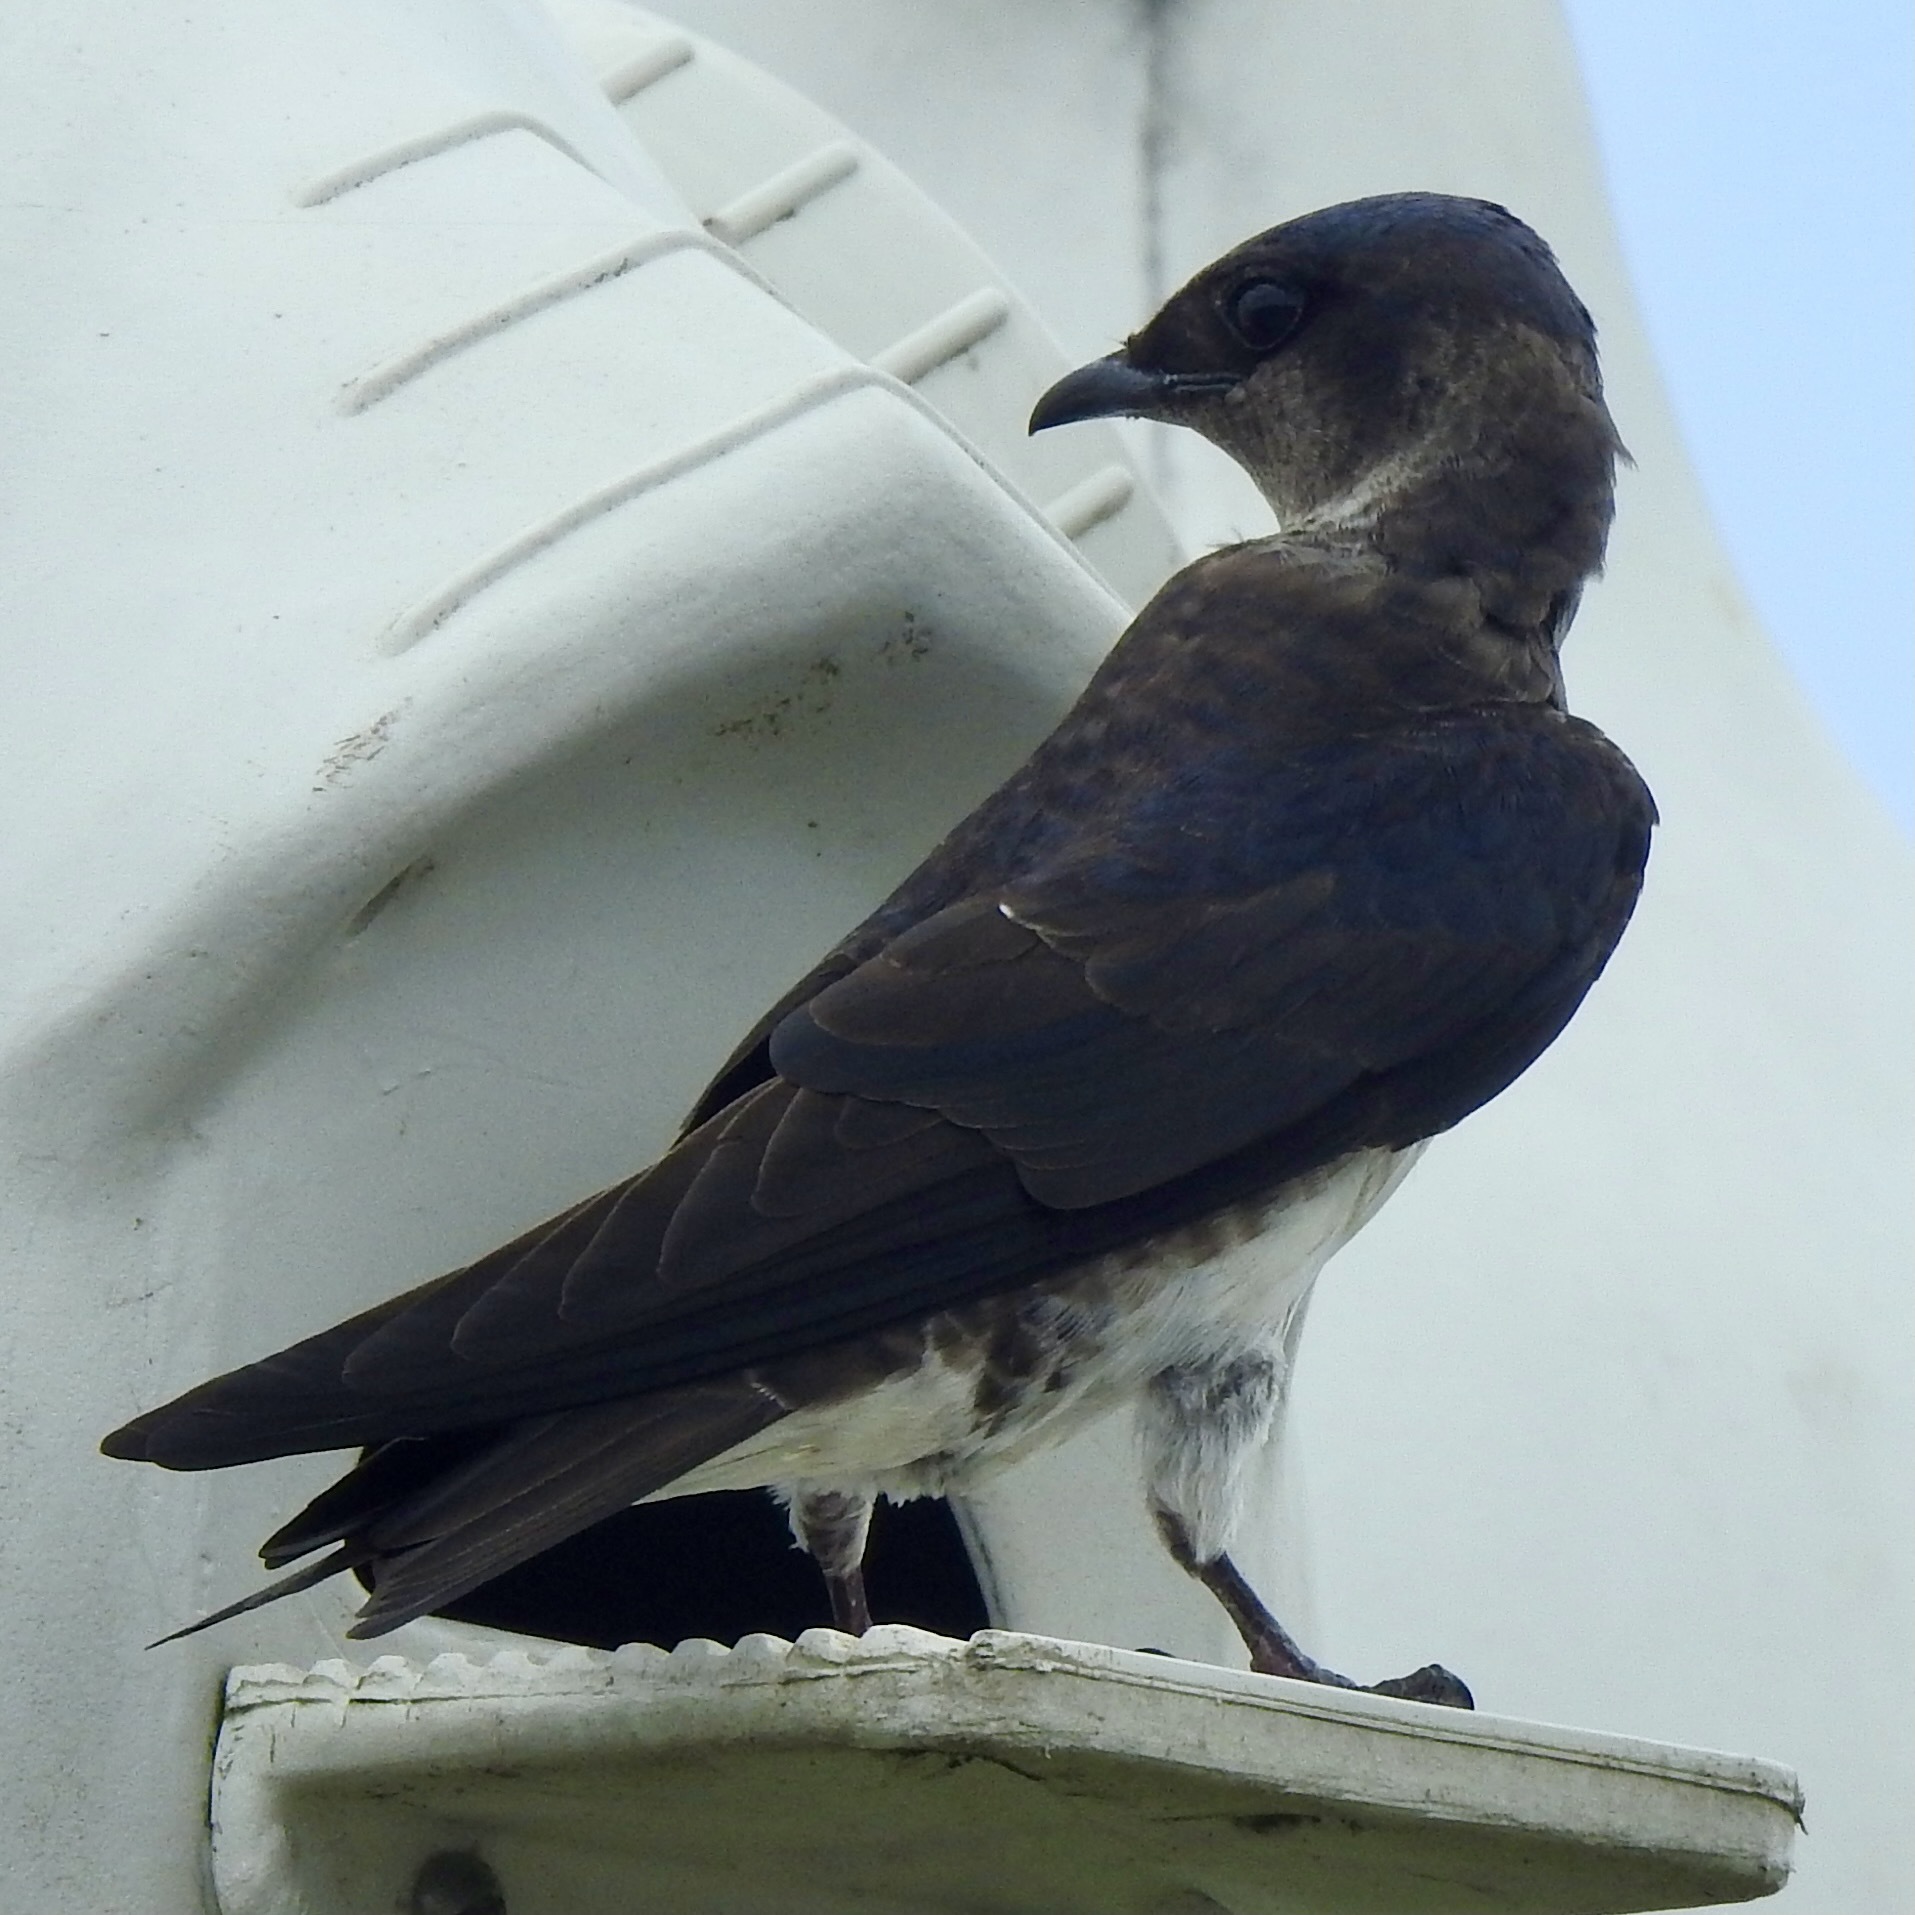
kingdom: Animalia
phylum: Chordata
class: Aves
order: Passeriformes
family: Hirundinidae
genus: Progne
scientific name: Progne subis
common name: Purple martin
